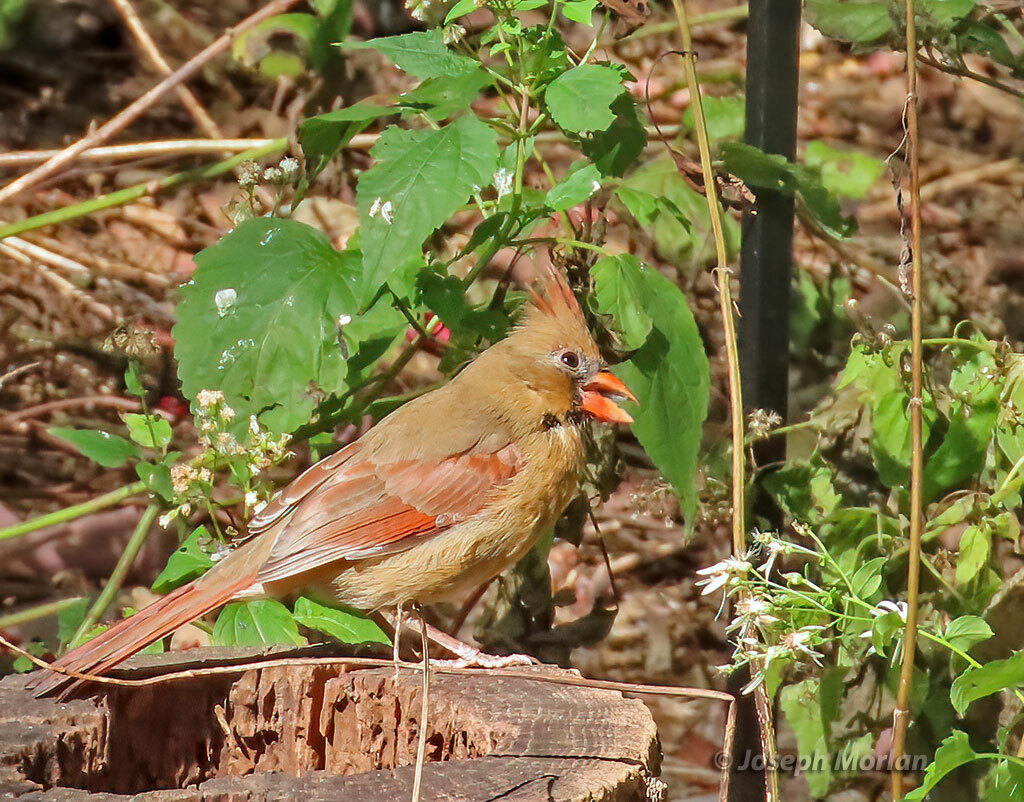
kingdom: Animalia
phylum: Chordata
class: Aves
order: Passeriformes
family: Cardinalidae
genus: Cardinalis
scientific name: Cardinalis cardinalis
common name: Northern cardinal
